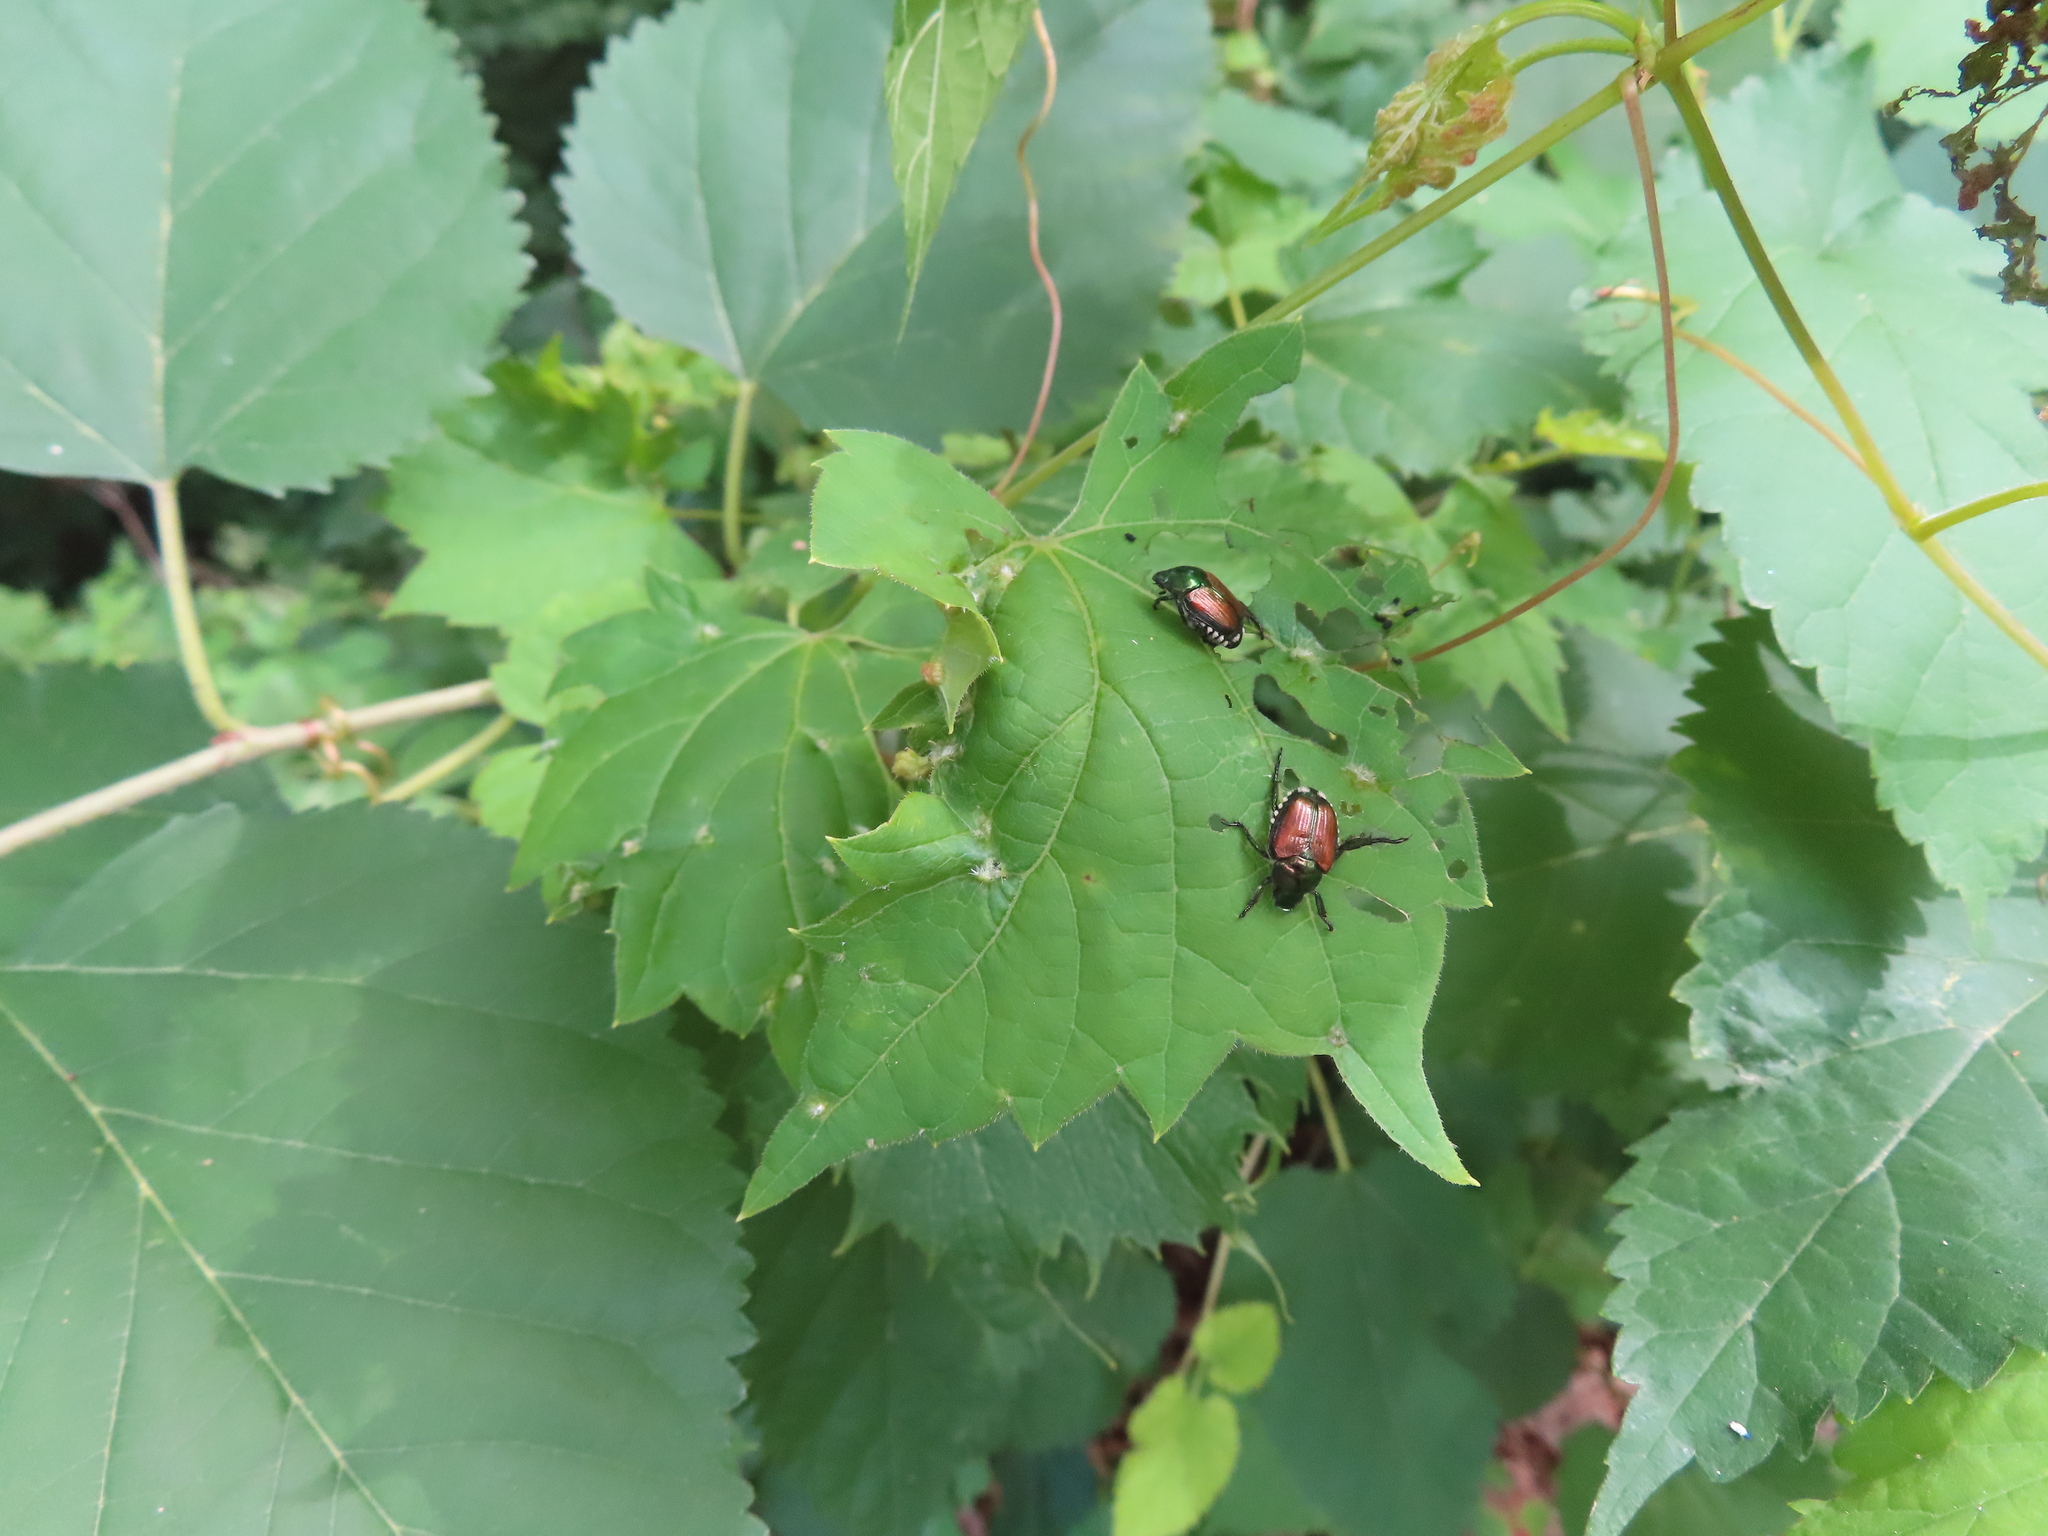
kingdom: Animalia
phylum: Arthropoda
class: Insecta
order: Coleoptera
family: Scarabaeidae
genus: Popillia
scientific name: Popillia japonica
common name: Japanese beetle
